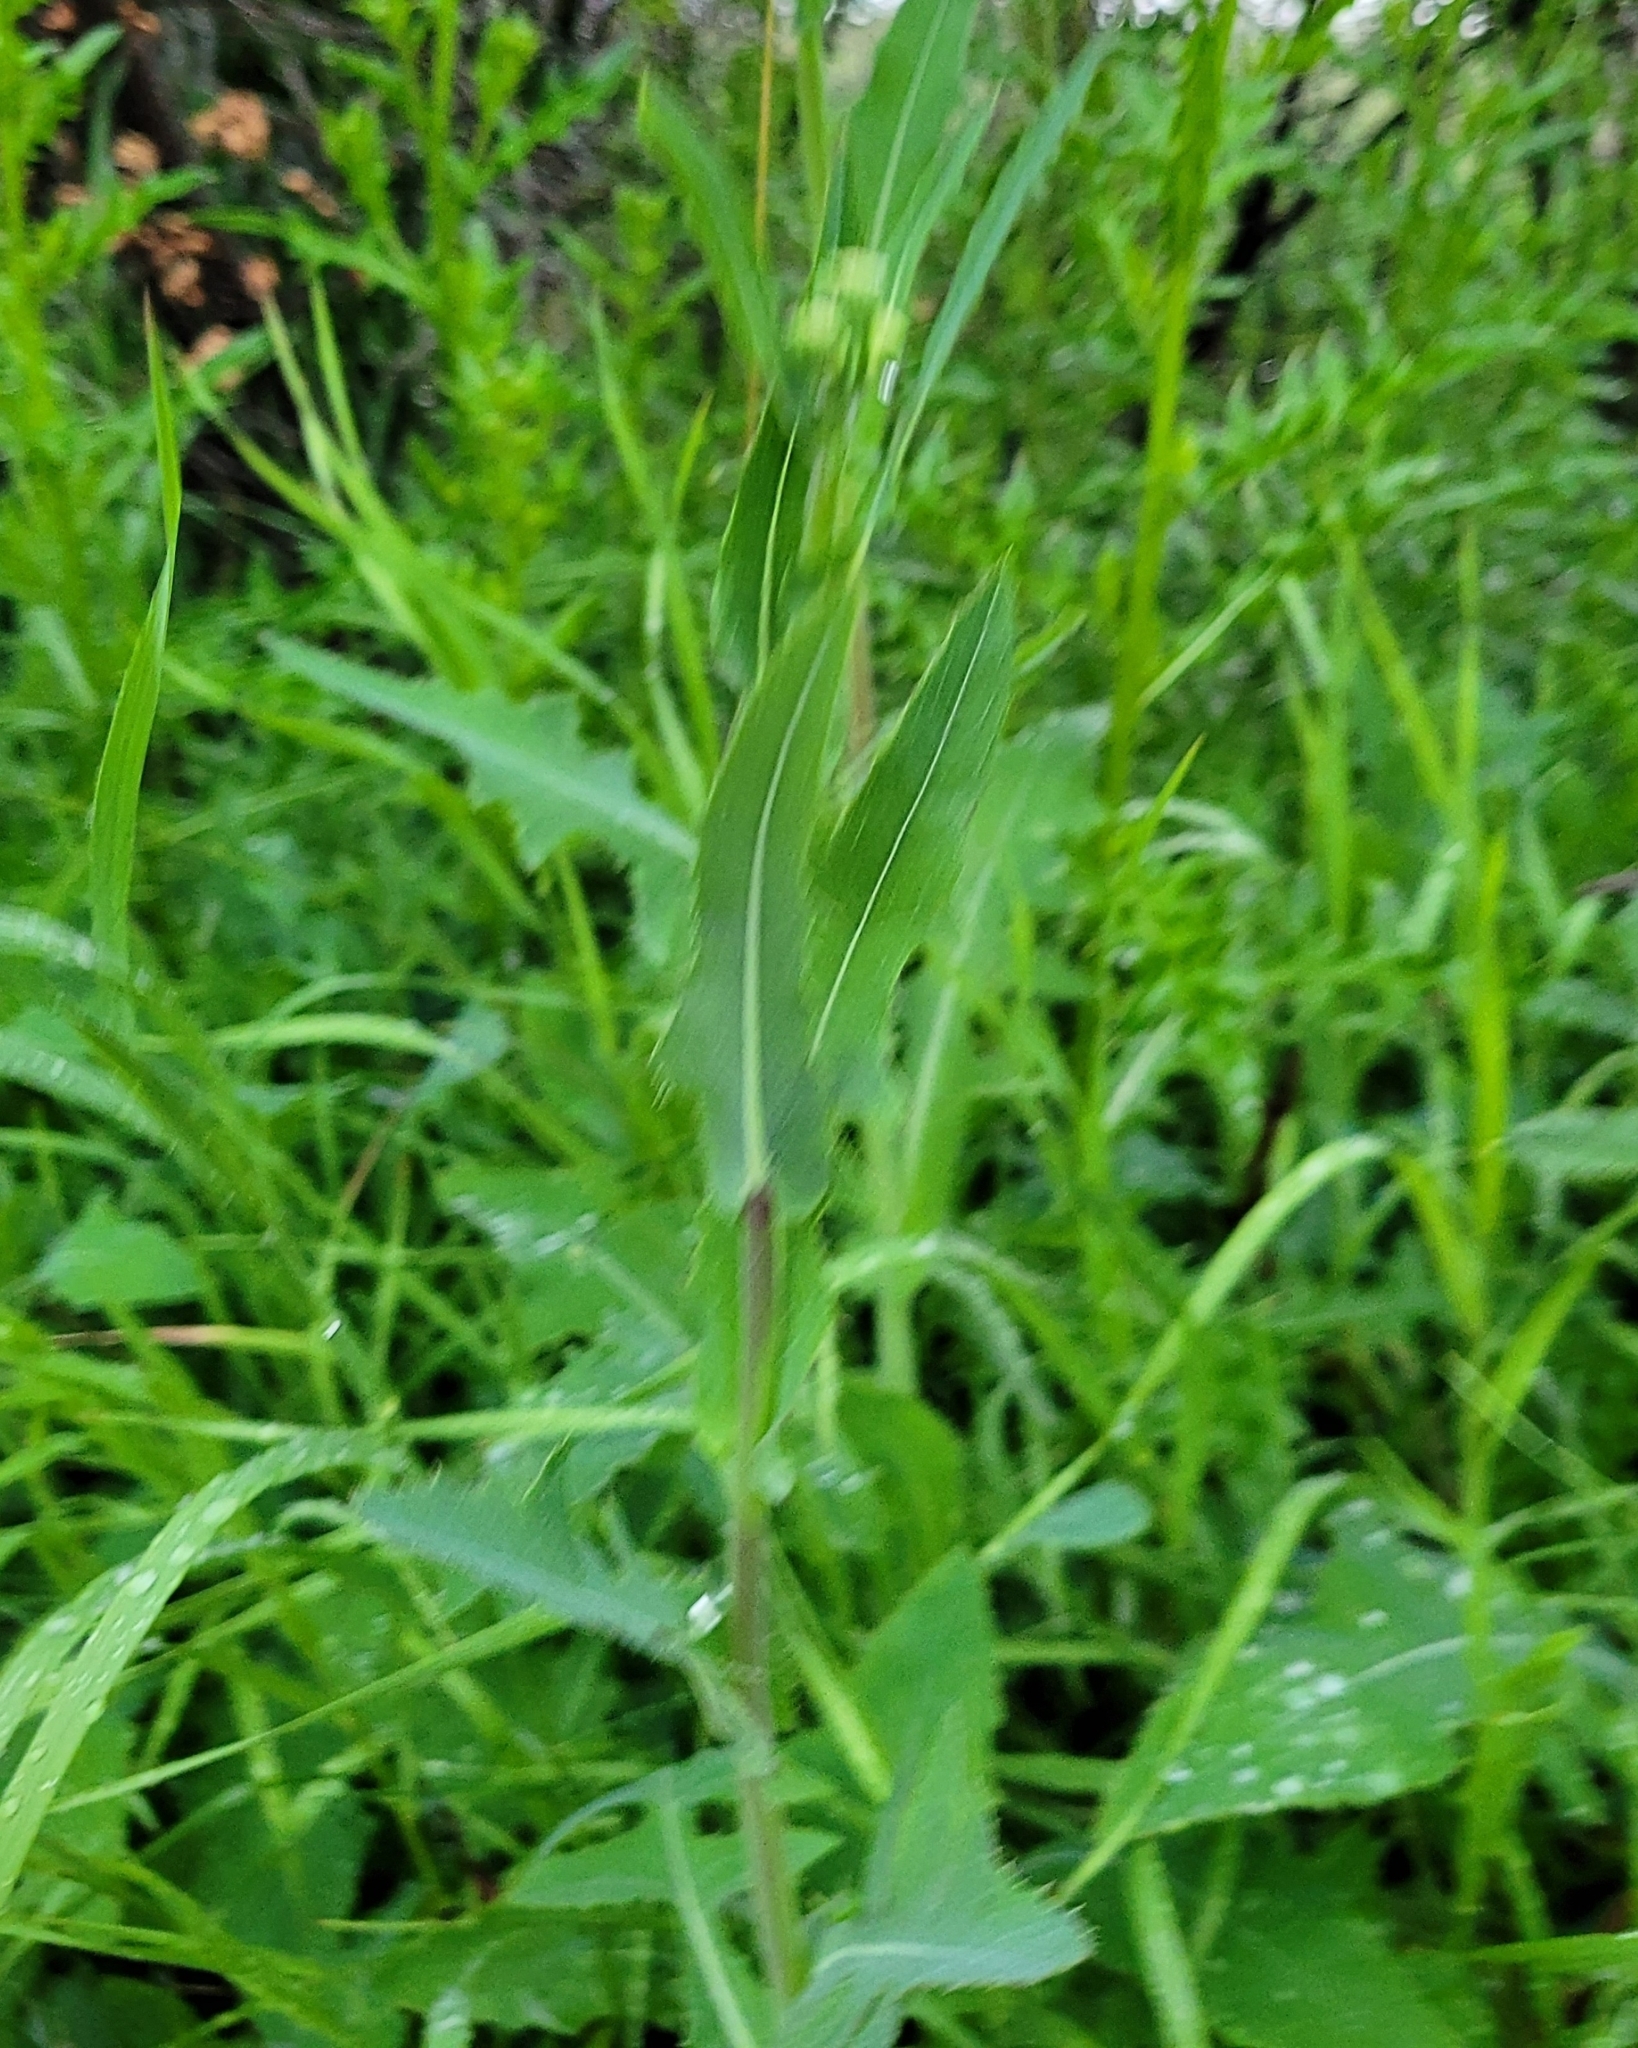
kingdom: Plantae
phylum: Tracheophyta
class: Magnoliopsida
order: Asterales
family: Asteraceae
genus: Sonchus
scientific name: Sonchus arvensis
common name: Perennial sow-thistle
